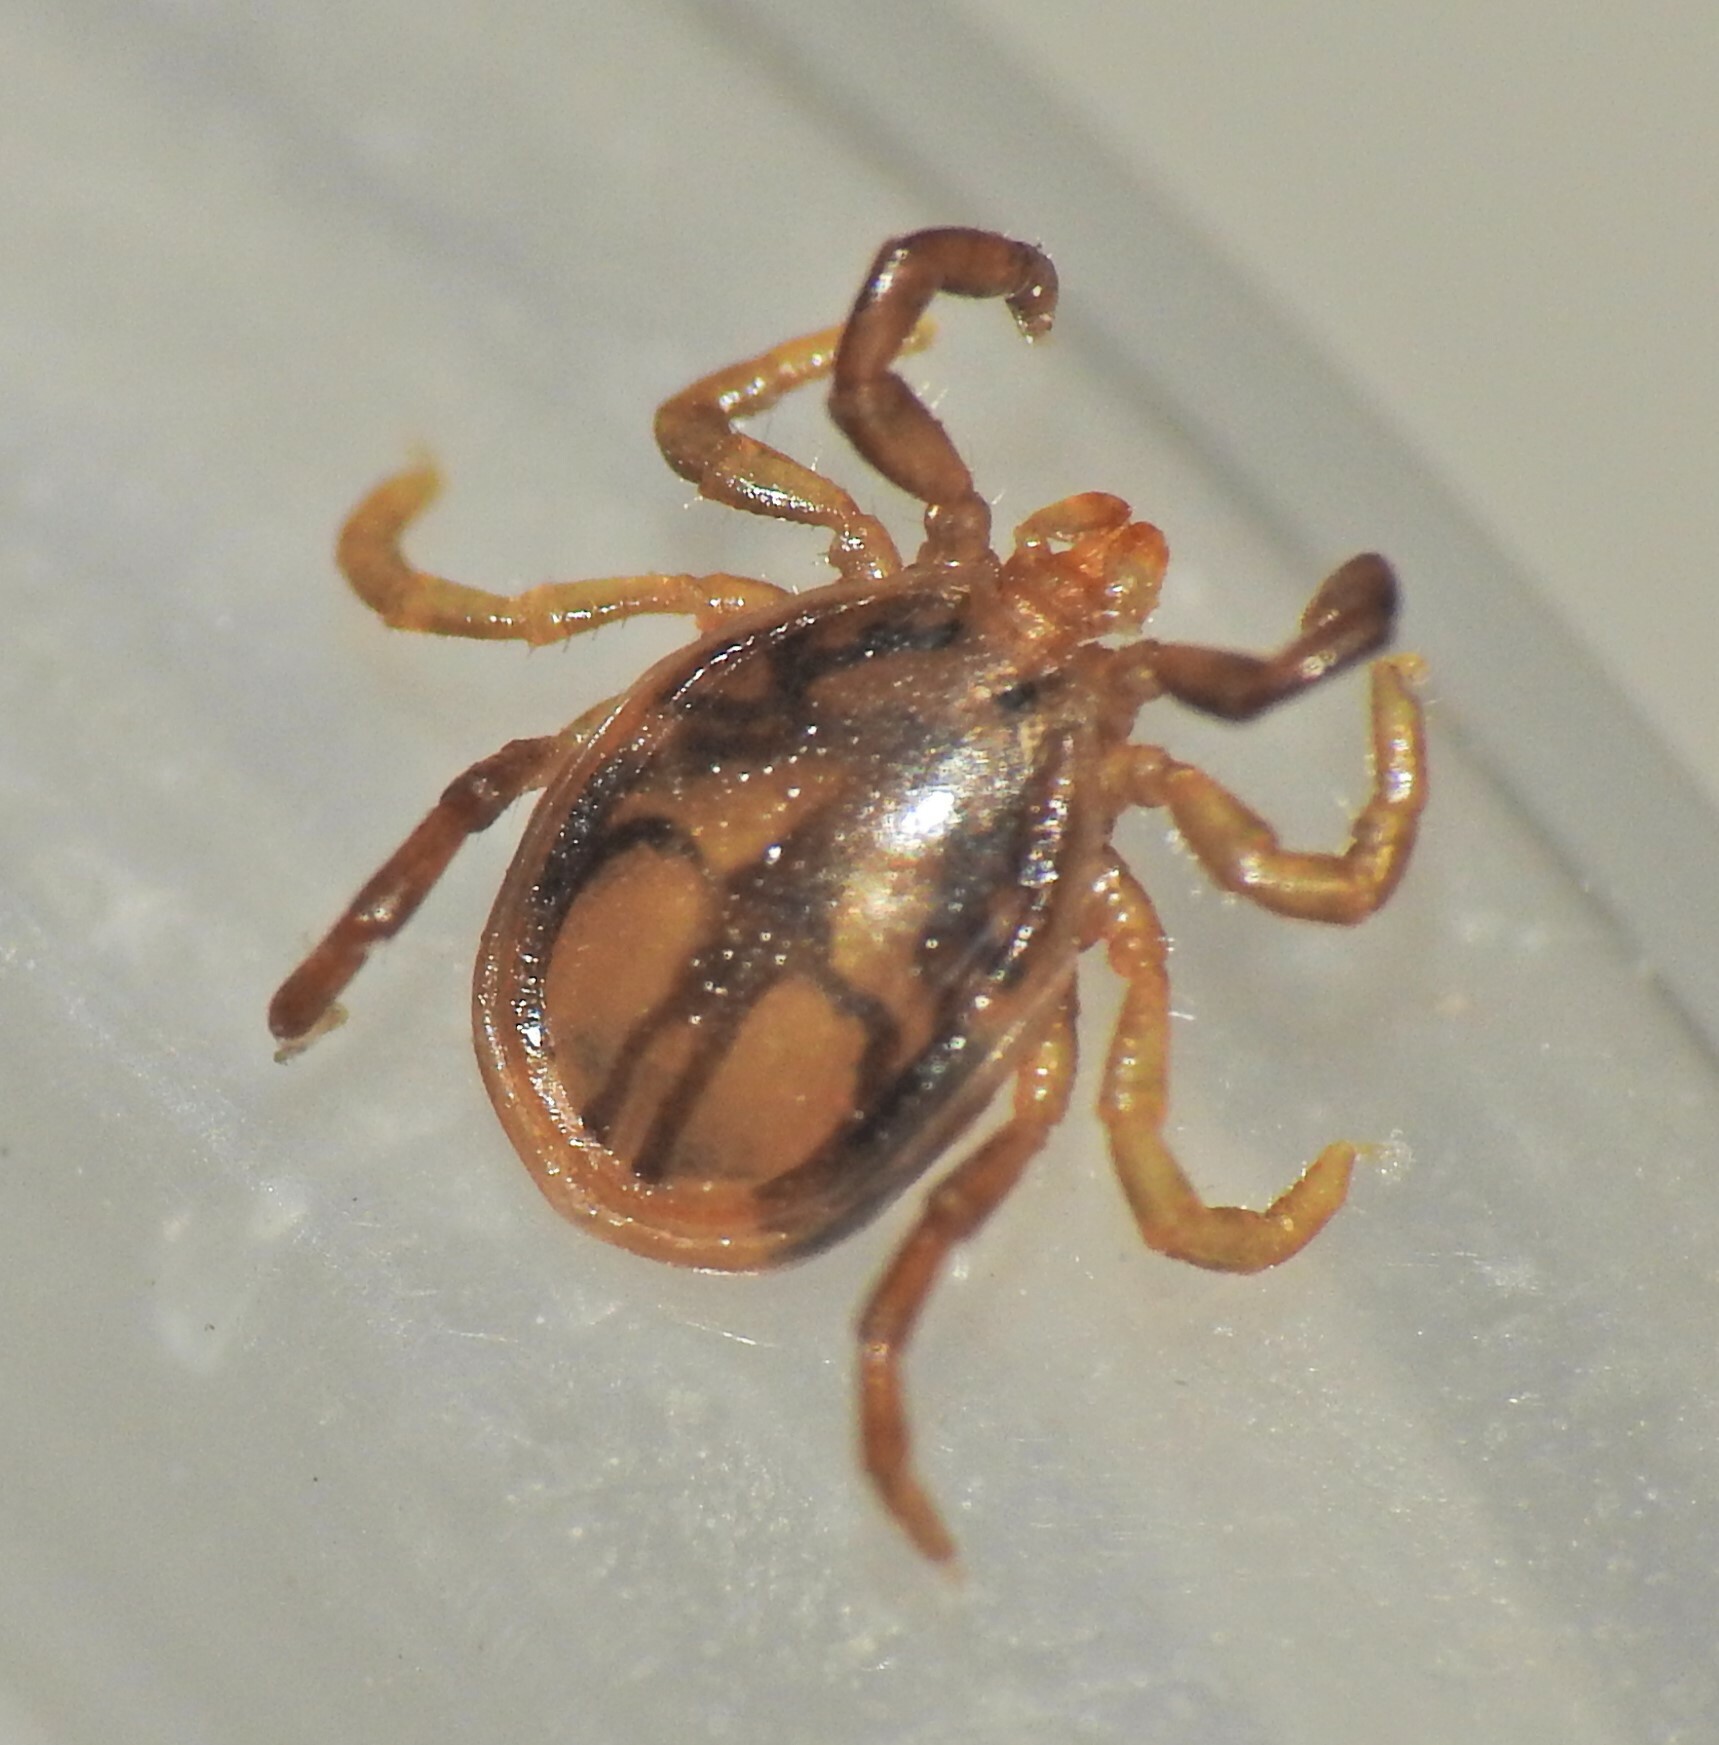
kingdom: Animalia
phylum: Arthropoda
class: Arachnida
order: Ixodida
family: Ixodidae
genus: Ixodes
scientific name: Ixodes holocyclus
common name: Australian paralysis tick
